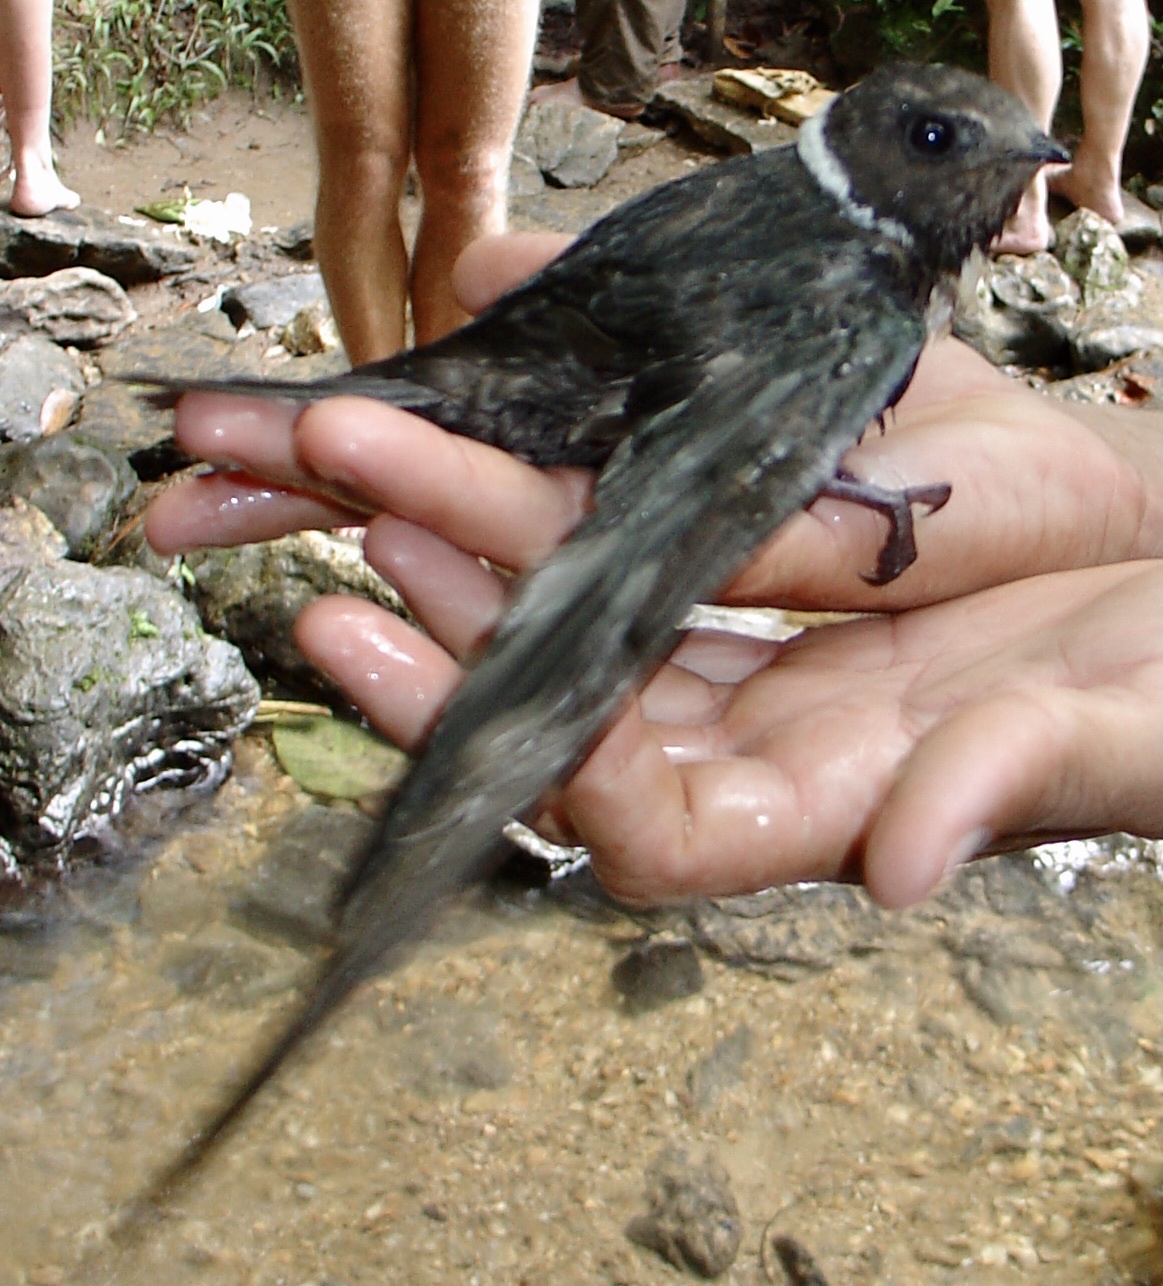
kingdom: Animalia
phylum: Chordata
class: Aves
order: Apodiformes
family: Apodidae
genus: Streptoprocne
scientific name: Streptoprocne zonaris
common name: White-collared swift
